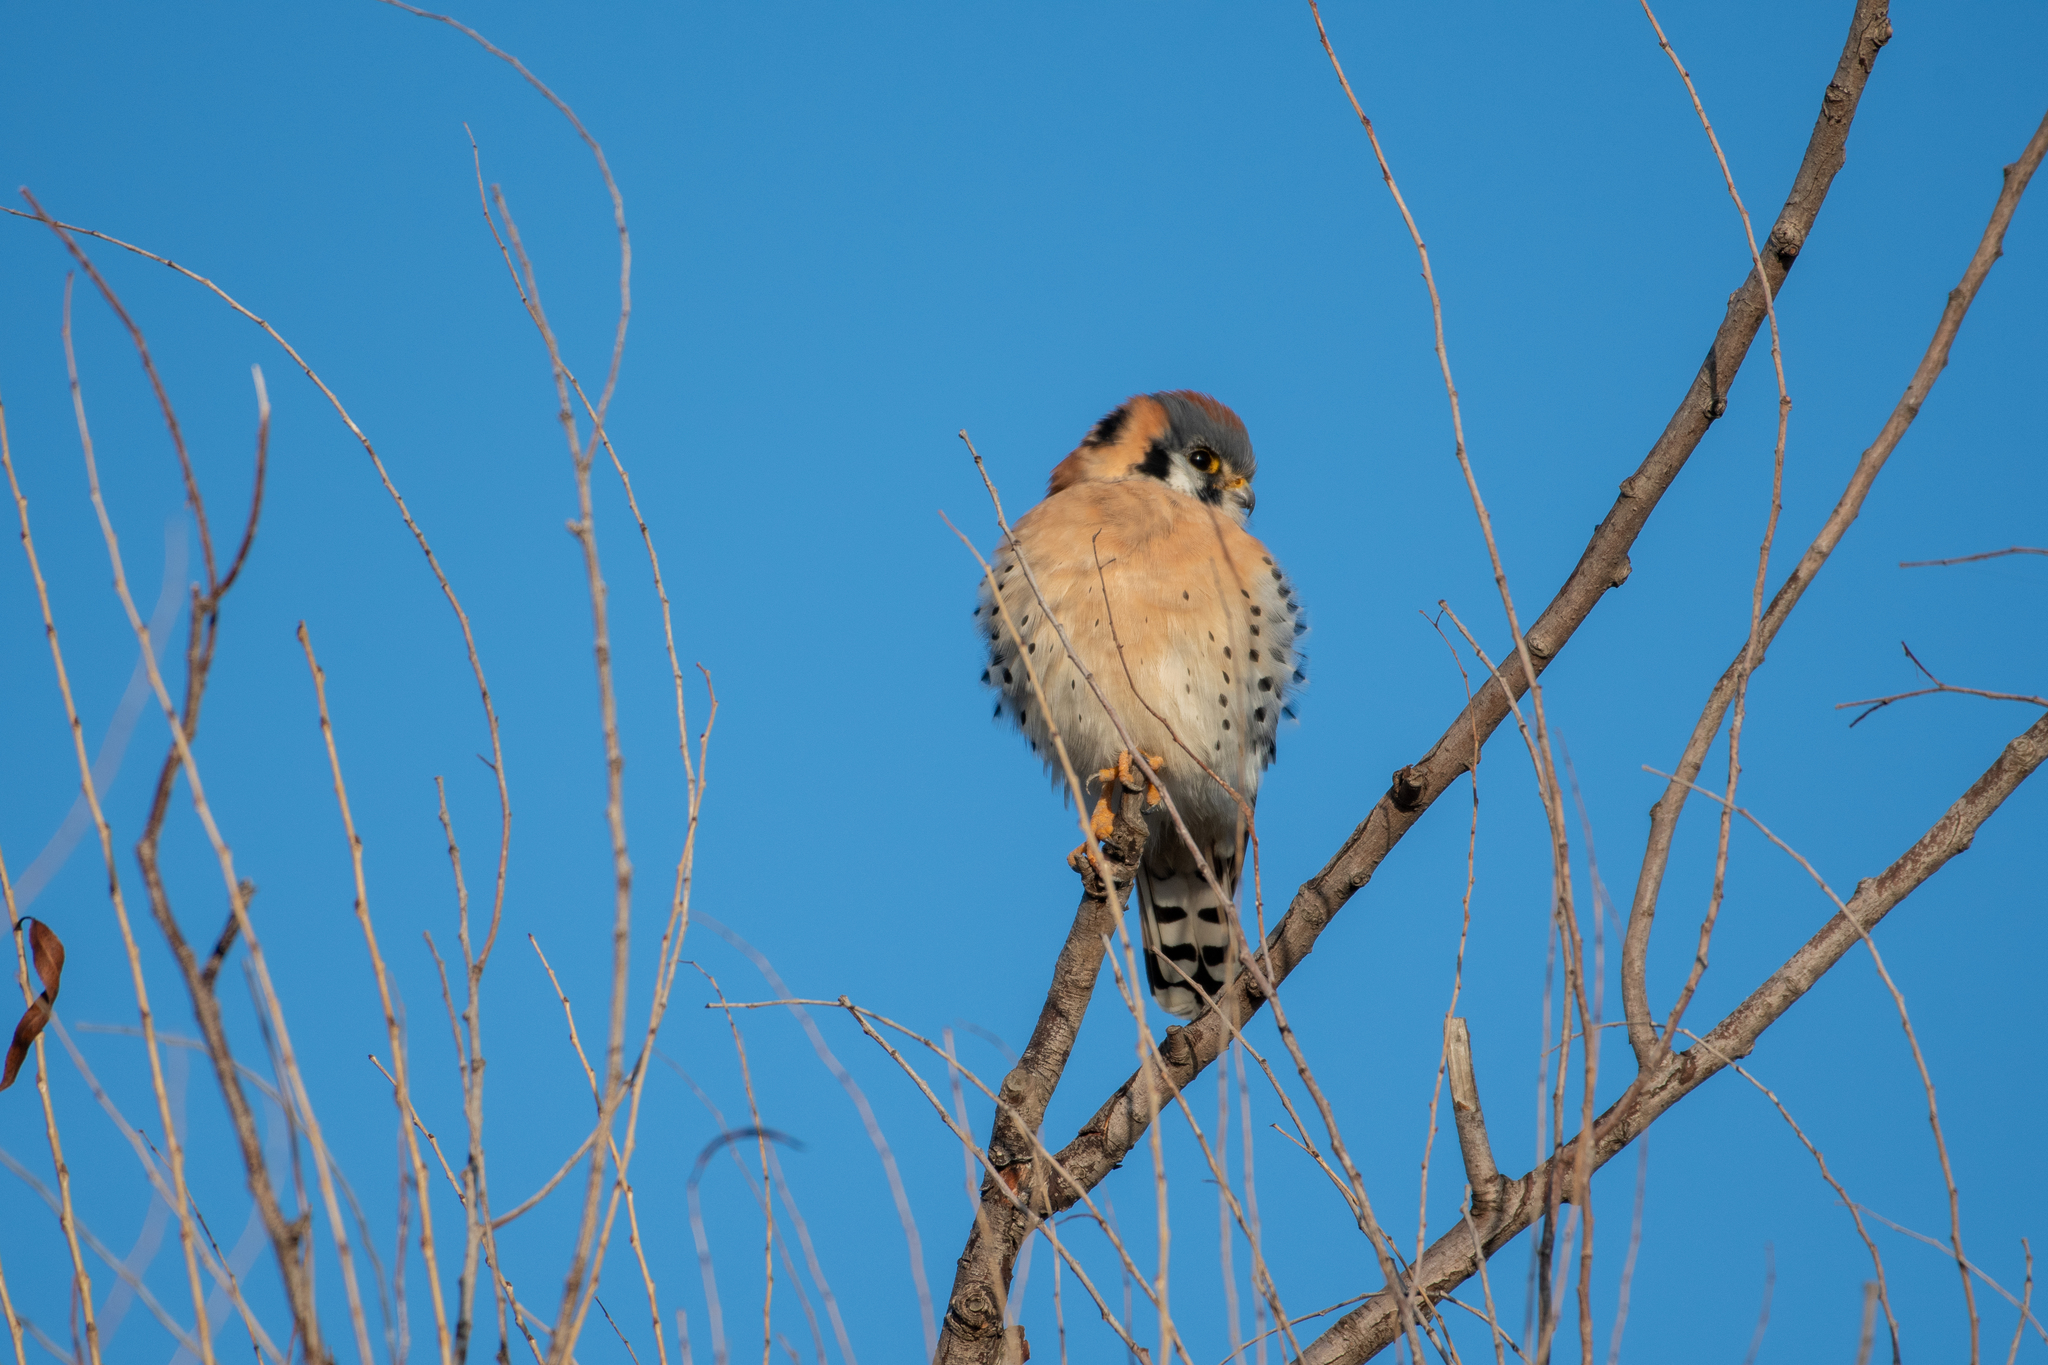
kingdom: Animalia
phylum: Chordata
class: Aves
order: Falconiformes
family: Falconidae
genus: Falco
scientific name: Falco sparverius
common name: American kestrel
